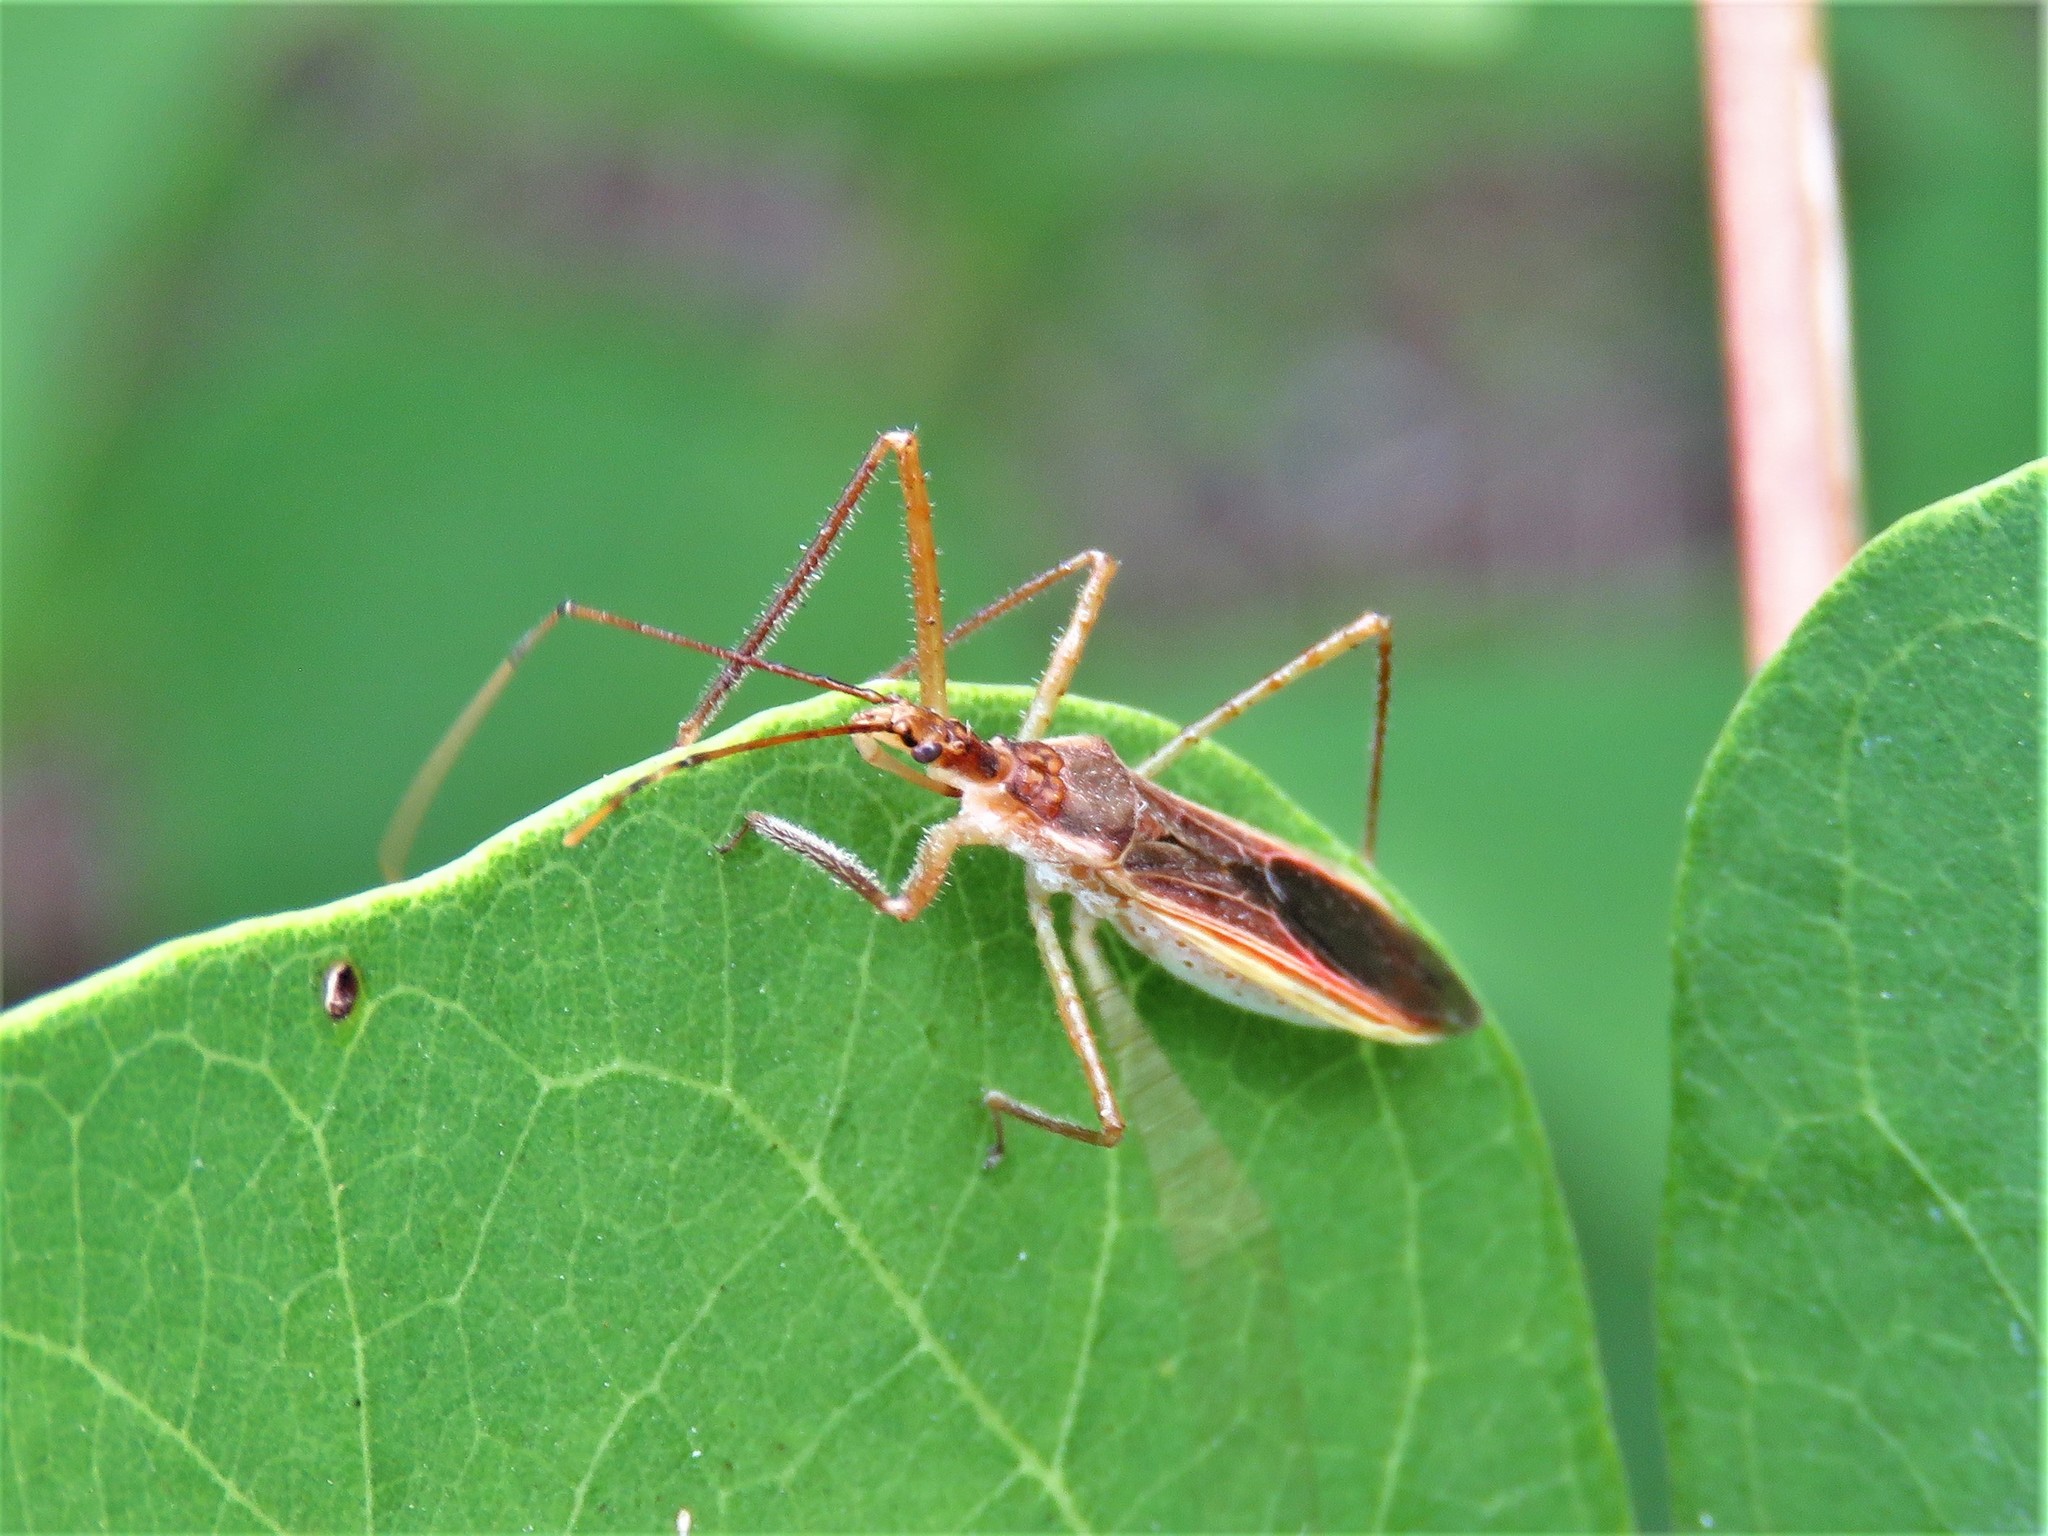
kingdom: Animalia
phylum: Arthropoda
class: Insecta
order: Hemiptera
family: Reduviidae
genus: Zelus
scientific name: Zelus cervicalis
